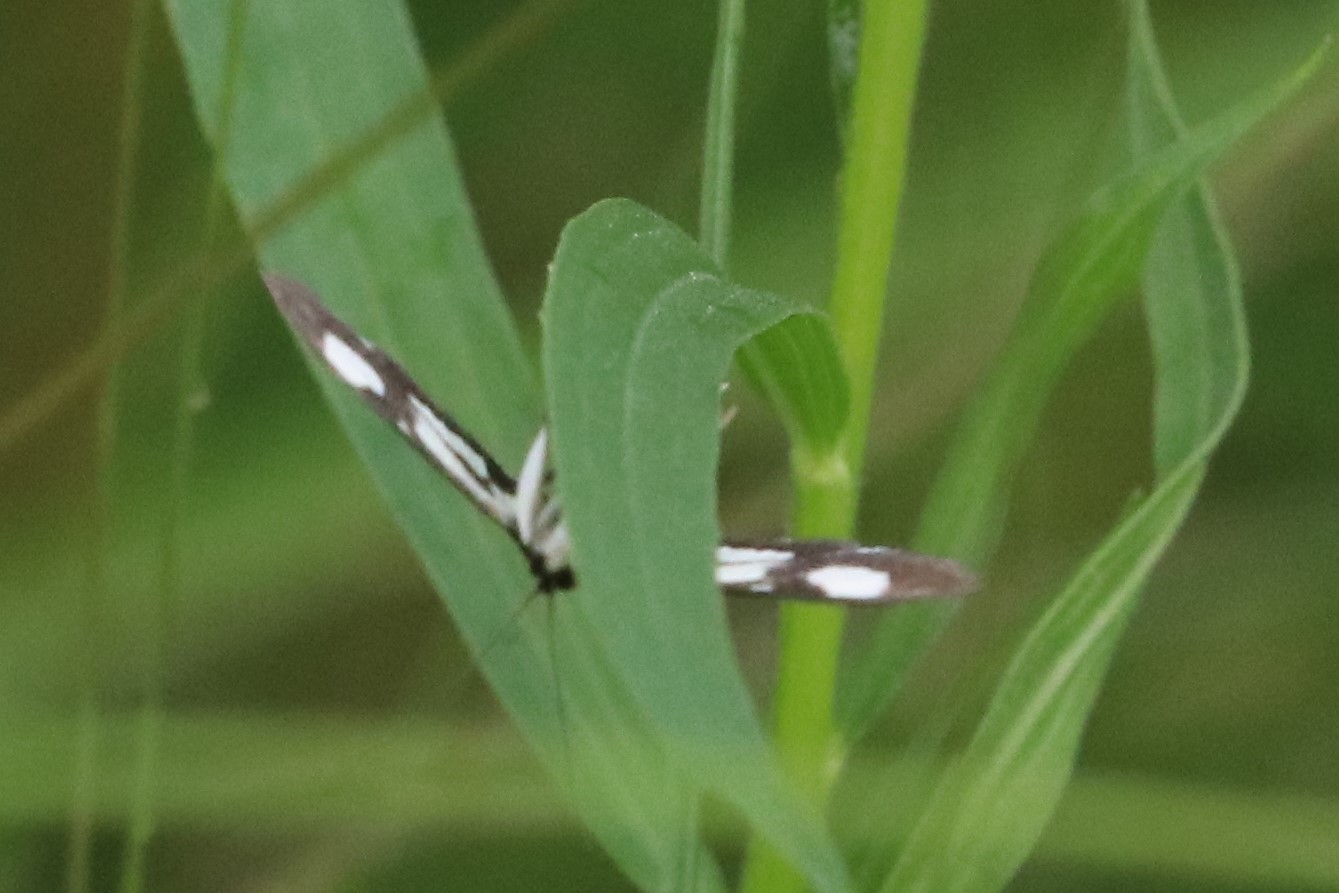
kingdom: Animalia
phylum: Arthropoda
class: Insecta
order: Lepidoptera
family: Crambidae
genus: Anania
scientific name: Anania funebris
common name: White-spotted sable moth
